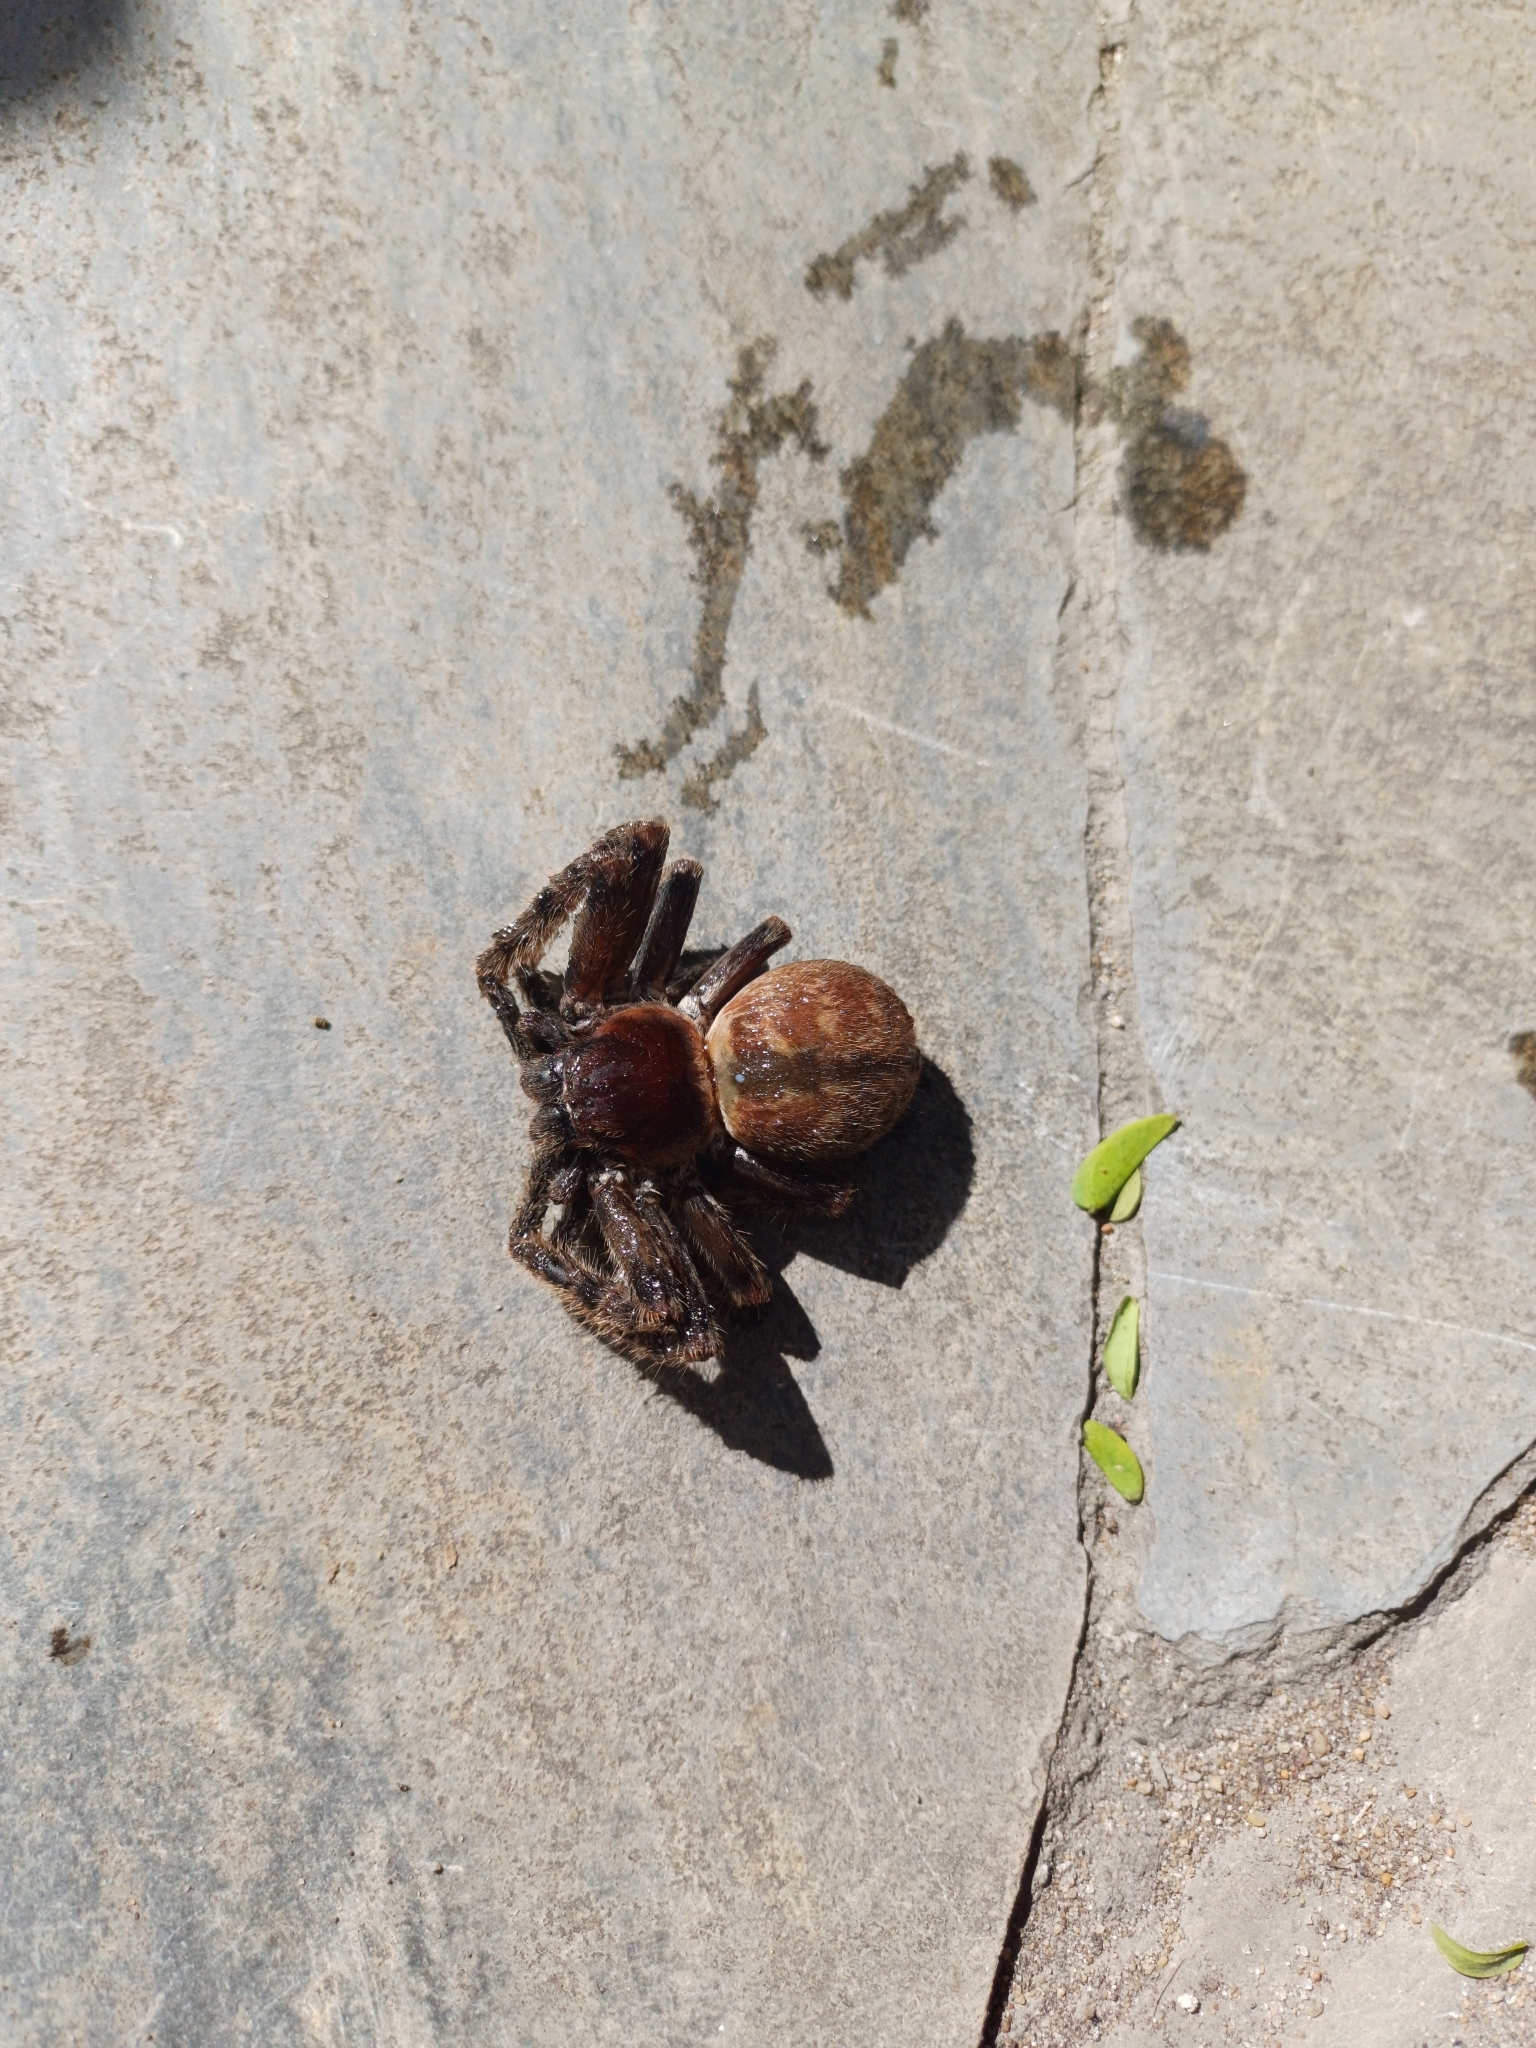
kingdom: Animalia
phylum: Arthropoda
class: Arachnida
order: Araneae
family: Sparassidae
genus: Polybetes
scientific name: Polybetes pythagoricus
